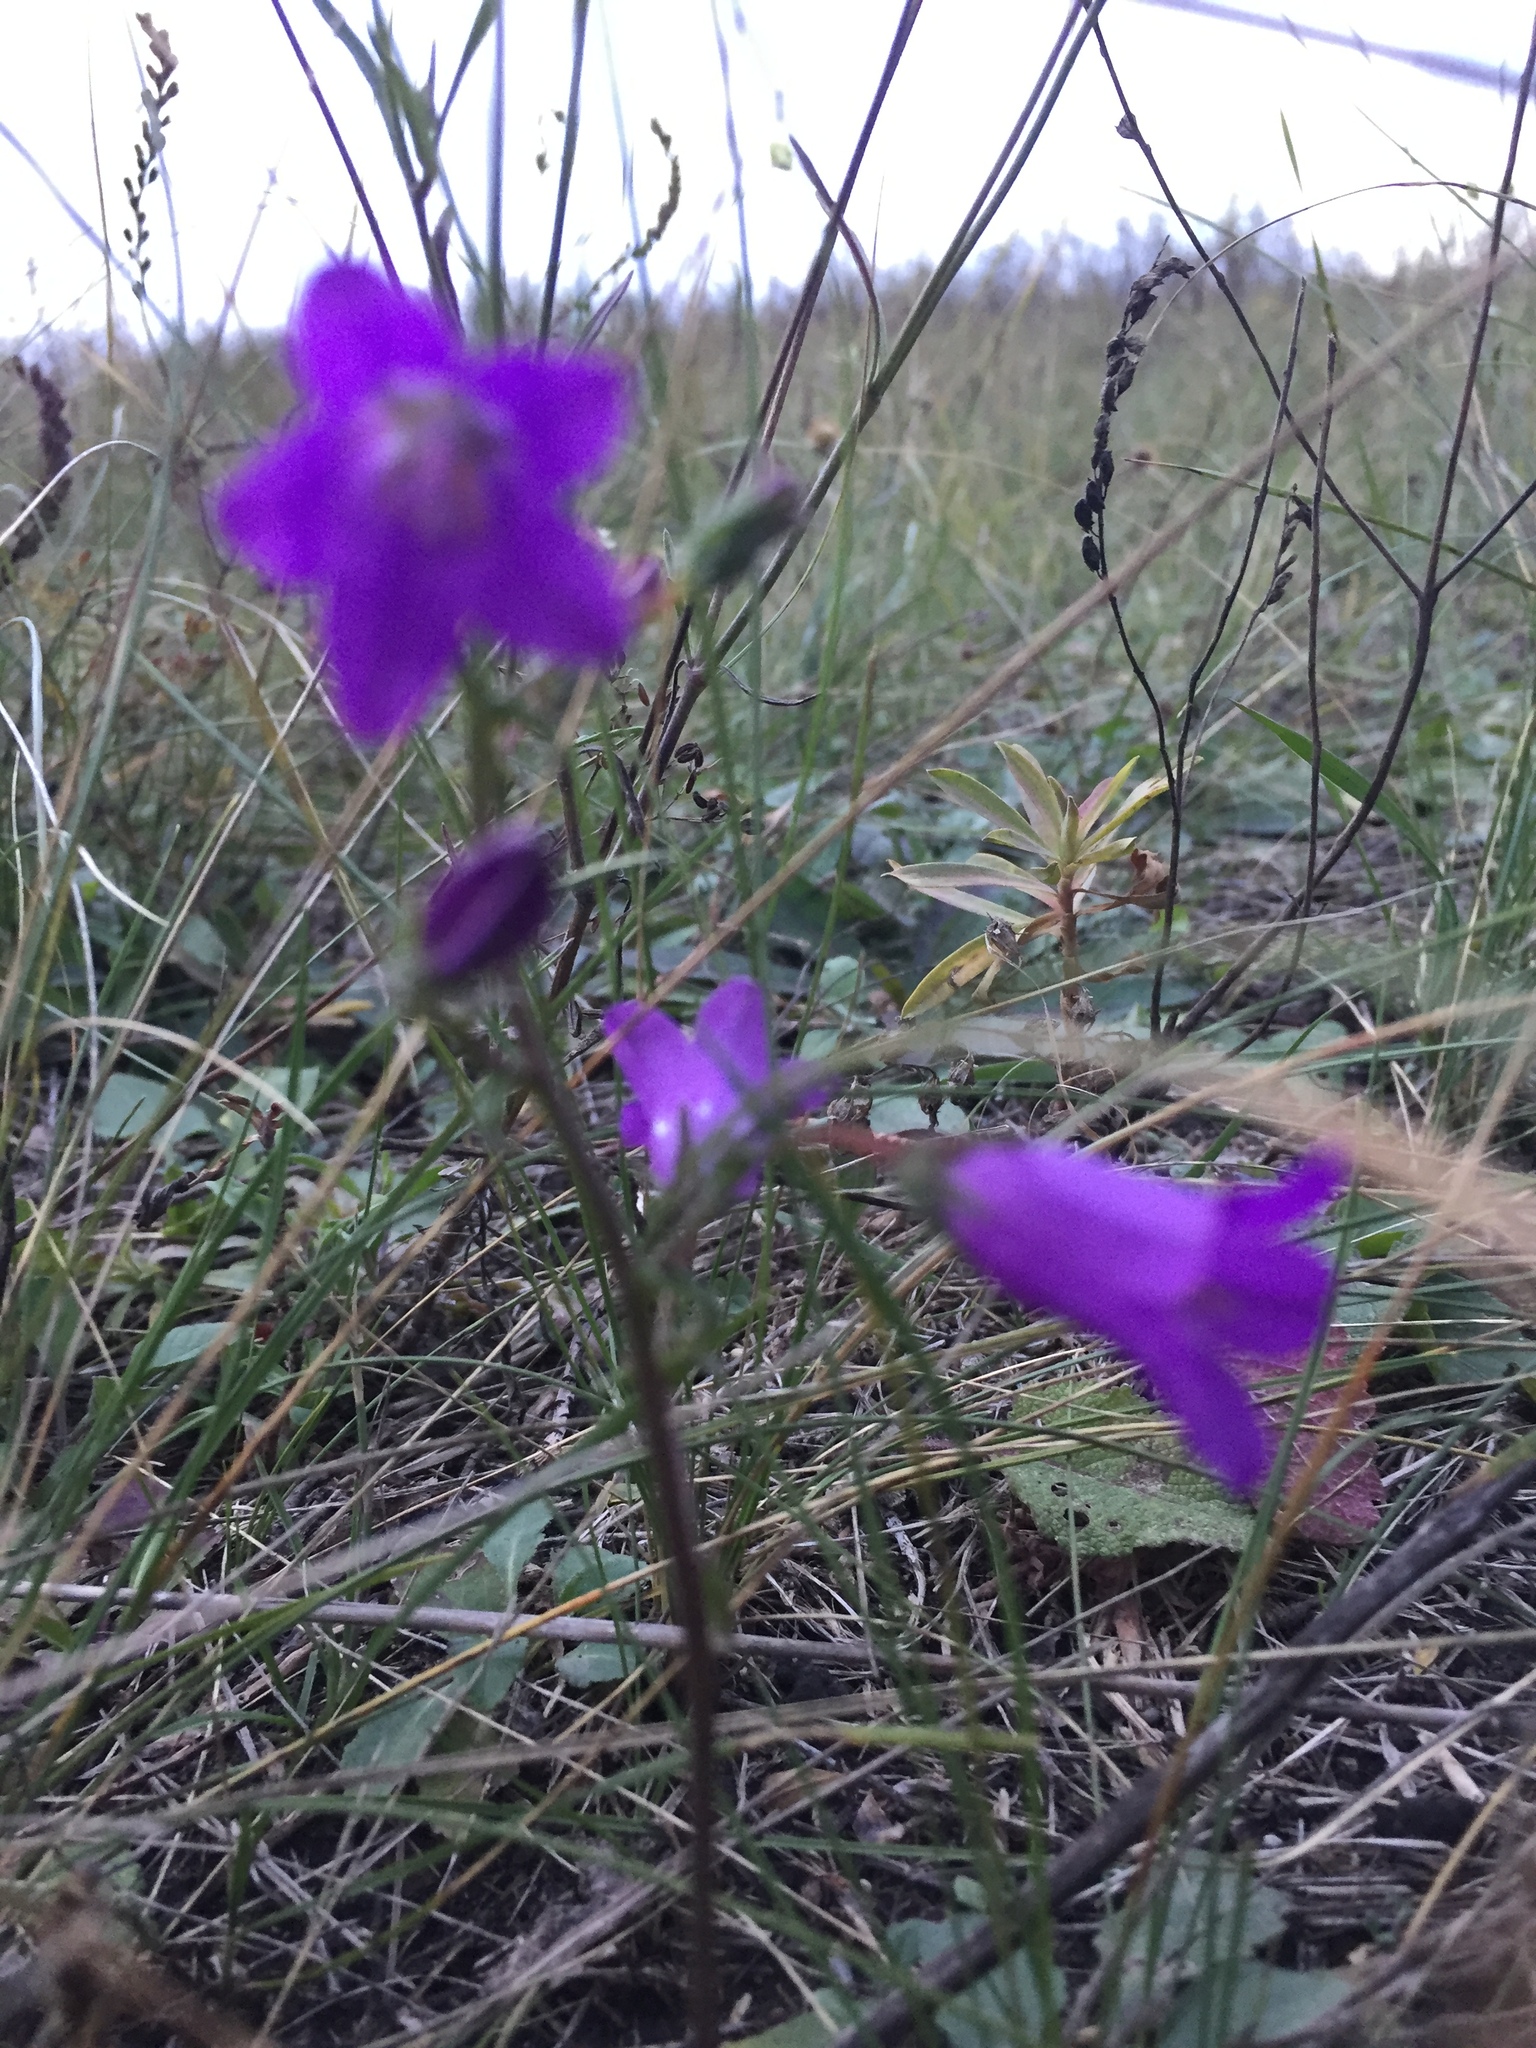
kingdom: Plantae
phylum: Tracheophyta
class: Magnoliopsida
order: Asterales
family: Campanulaceae
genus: Campanula
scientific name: Campanula sibirica
